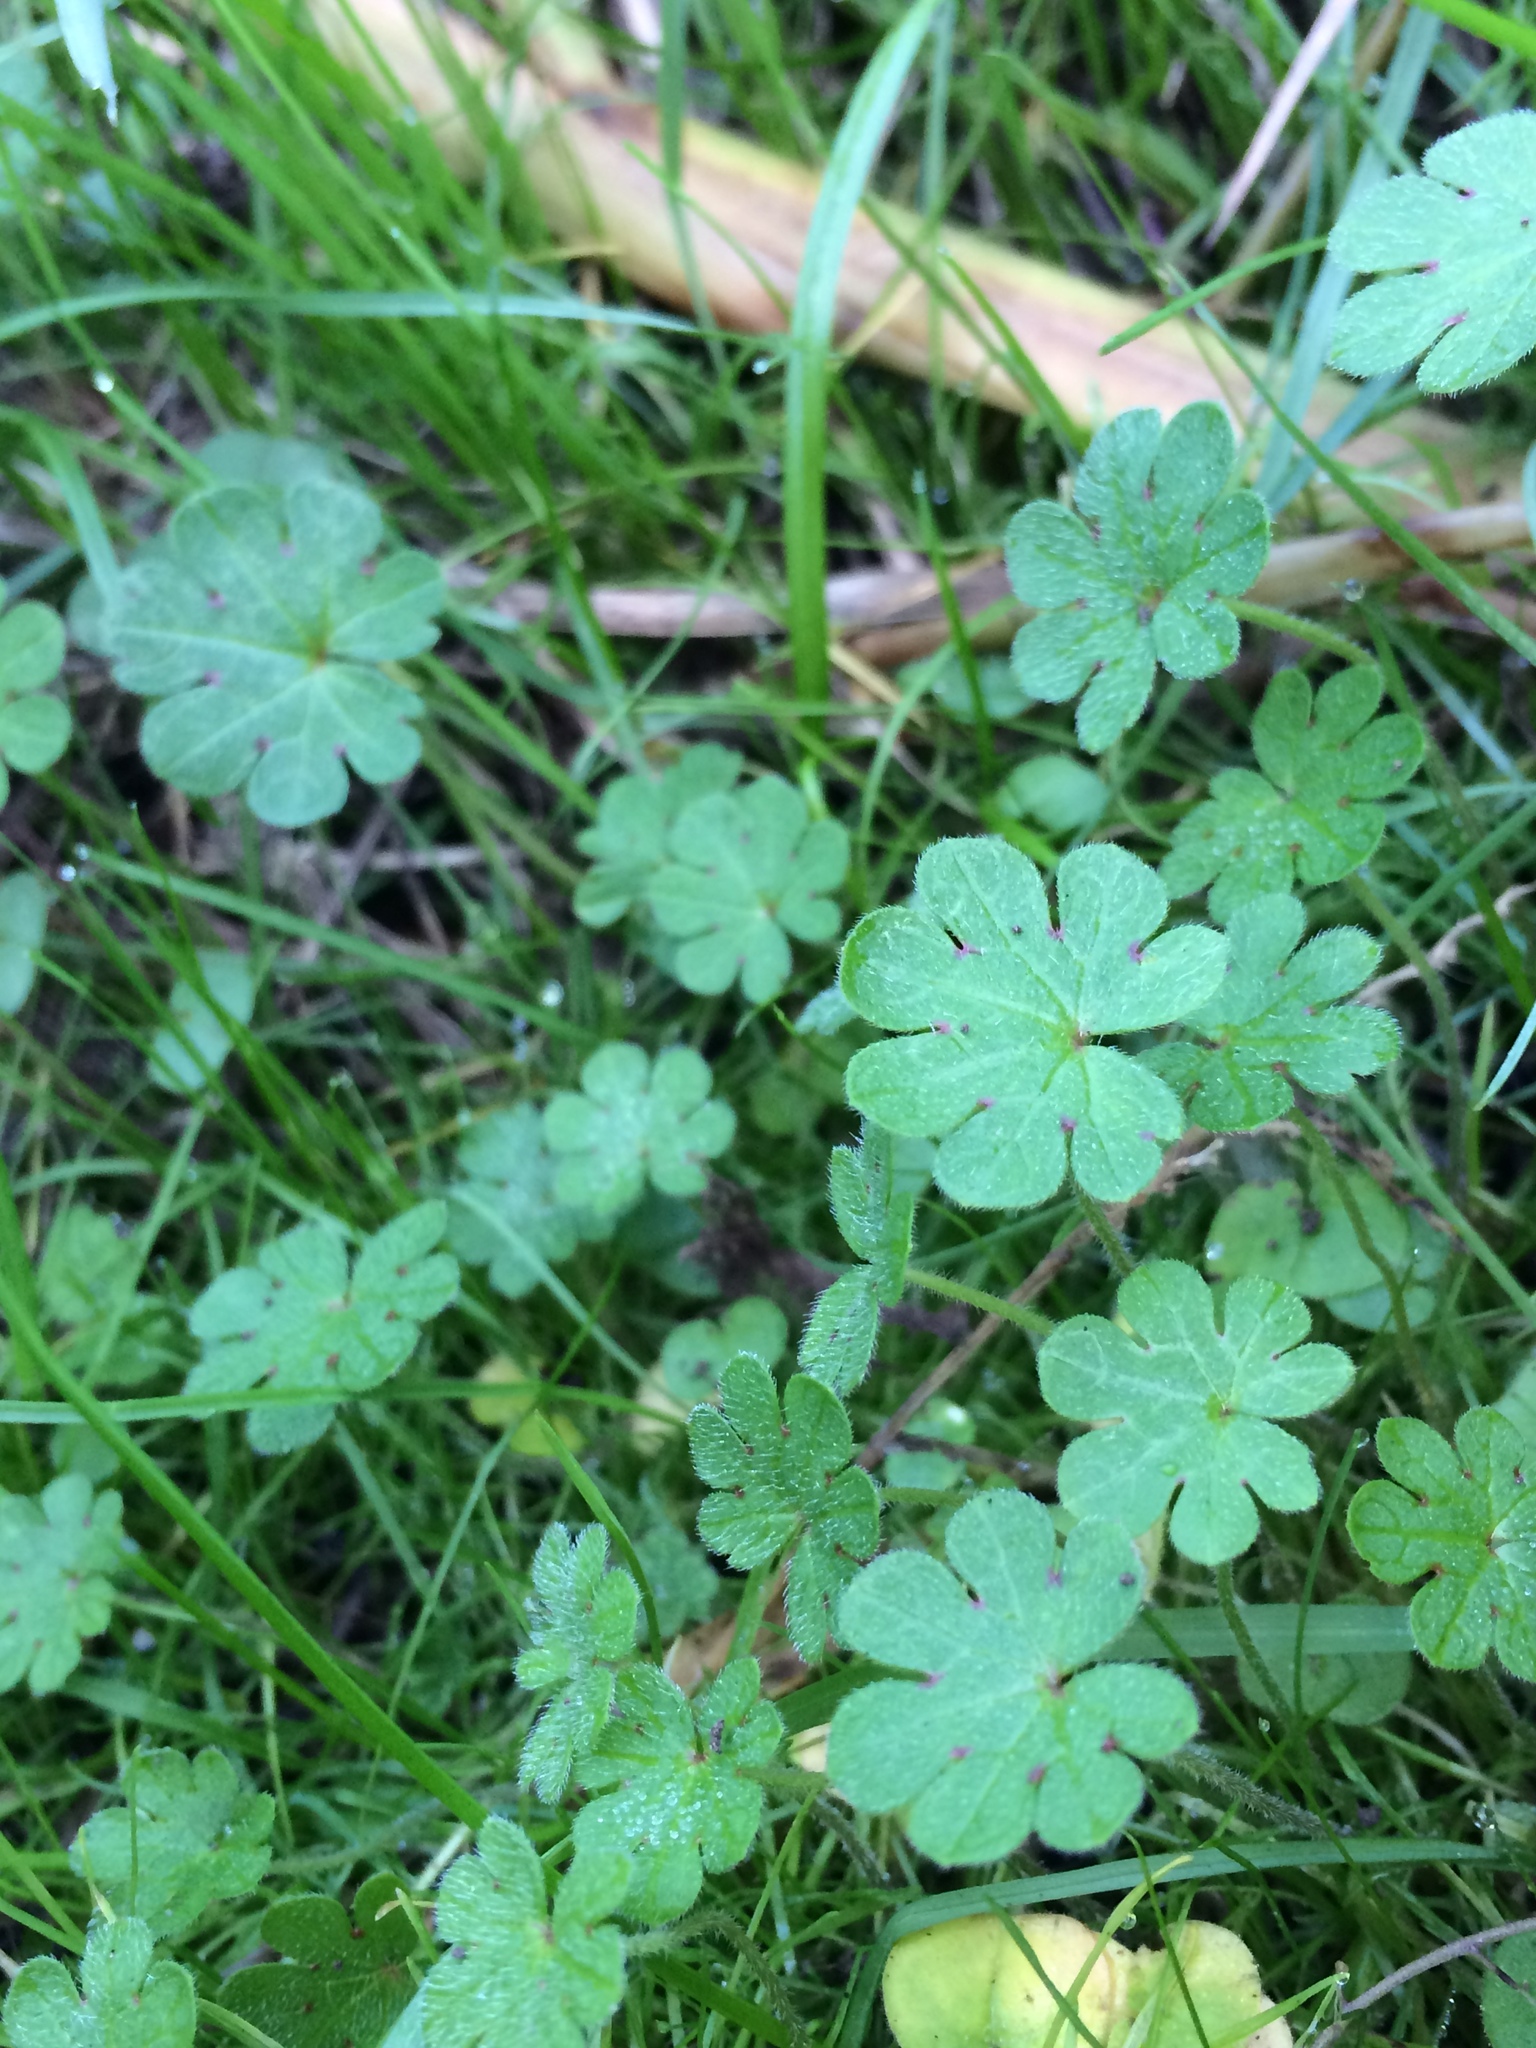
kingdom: Plantae
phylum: Tracheophyta
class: Magnoliopsida
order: Geraniales
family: Geraniaceae
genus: Geranium
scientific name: Geranium molle
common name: Dove's-foot crane's-bill
